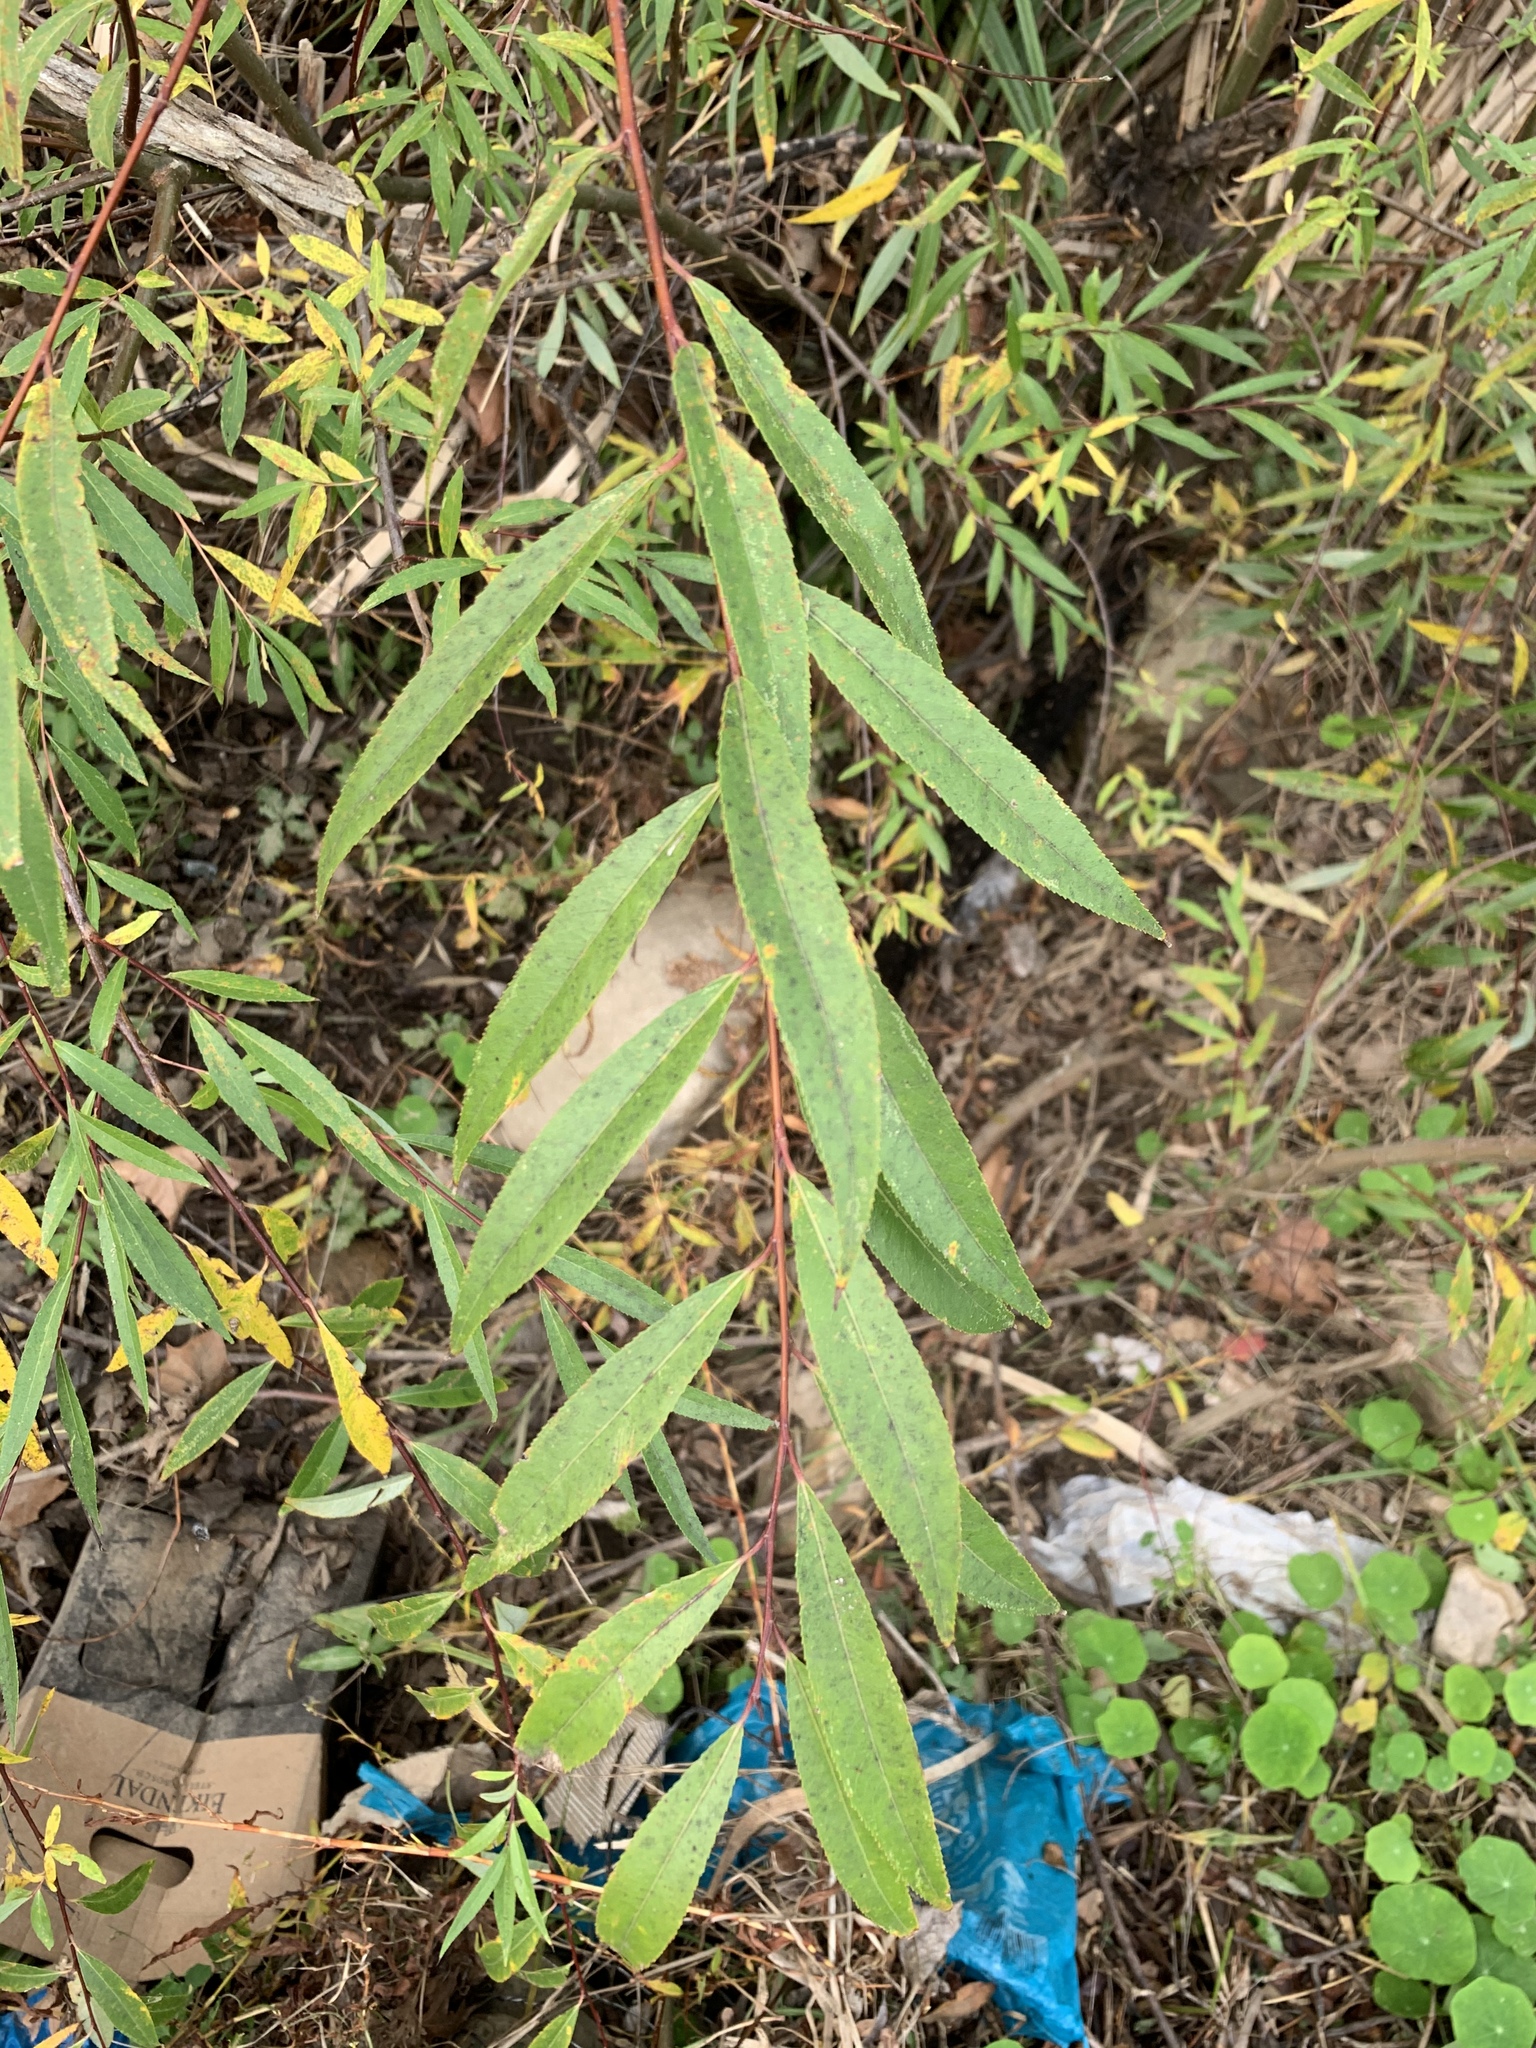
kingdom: Plantae
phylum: Tracheophyta
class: Magnoliopsida
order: Malpighiales
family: Salicaceae
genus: Salix
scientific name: Salix mucronata
